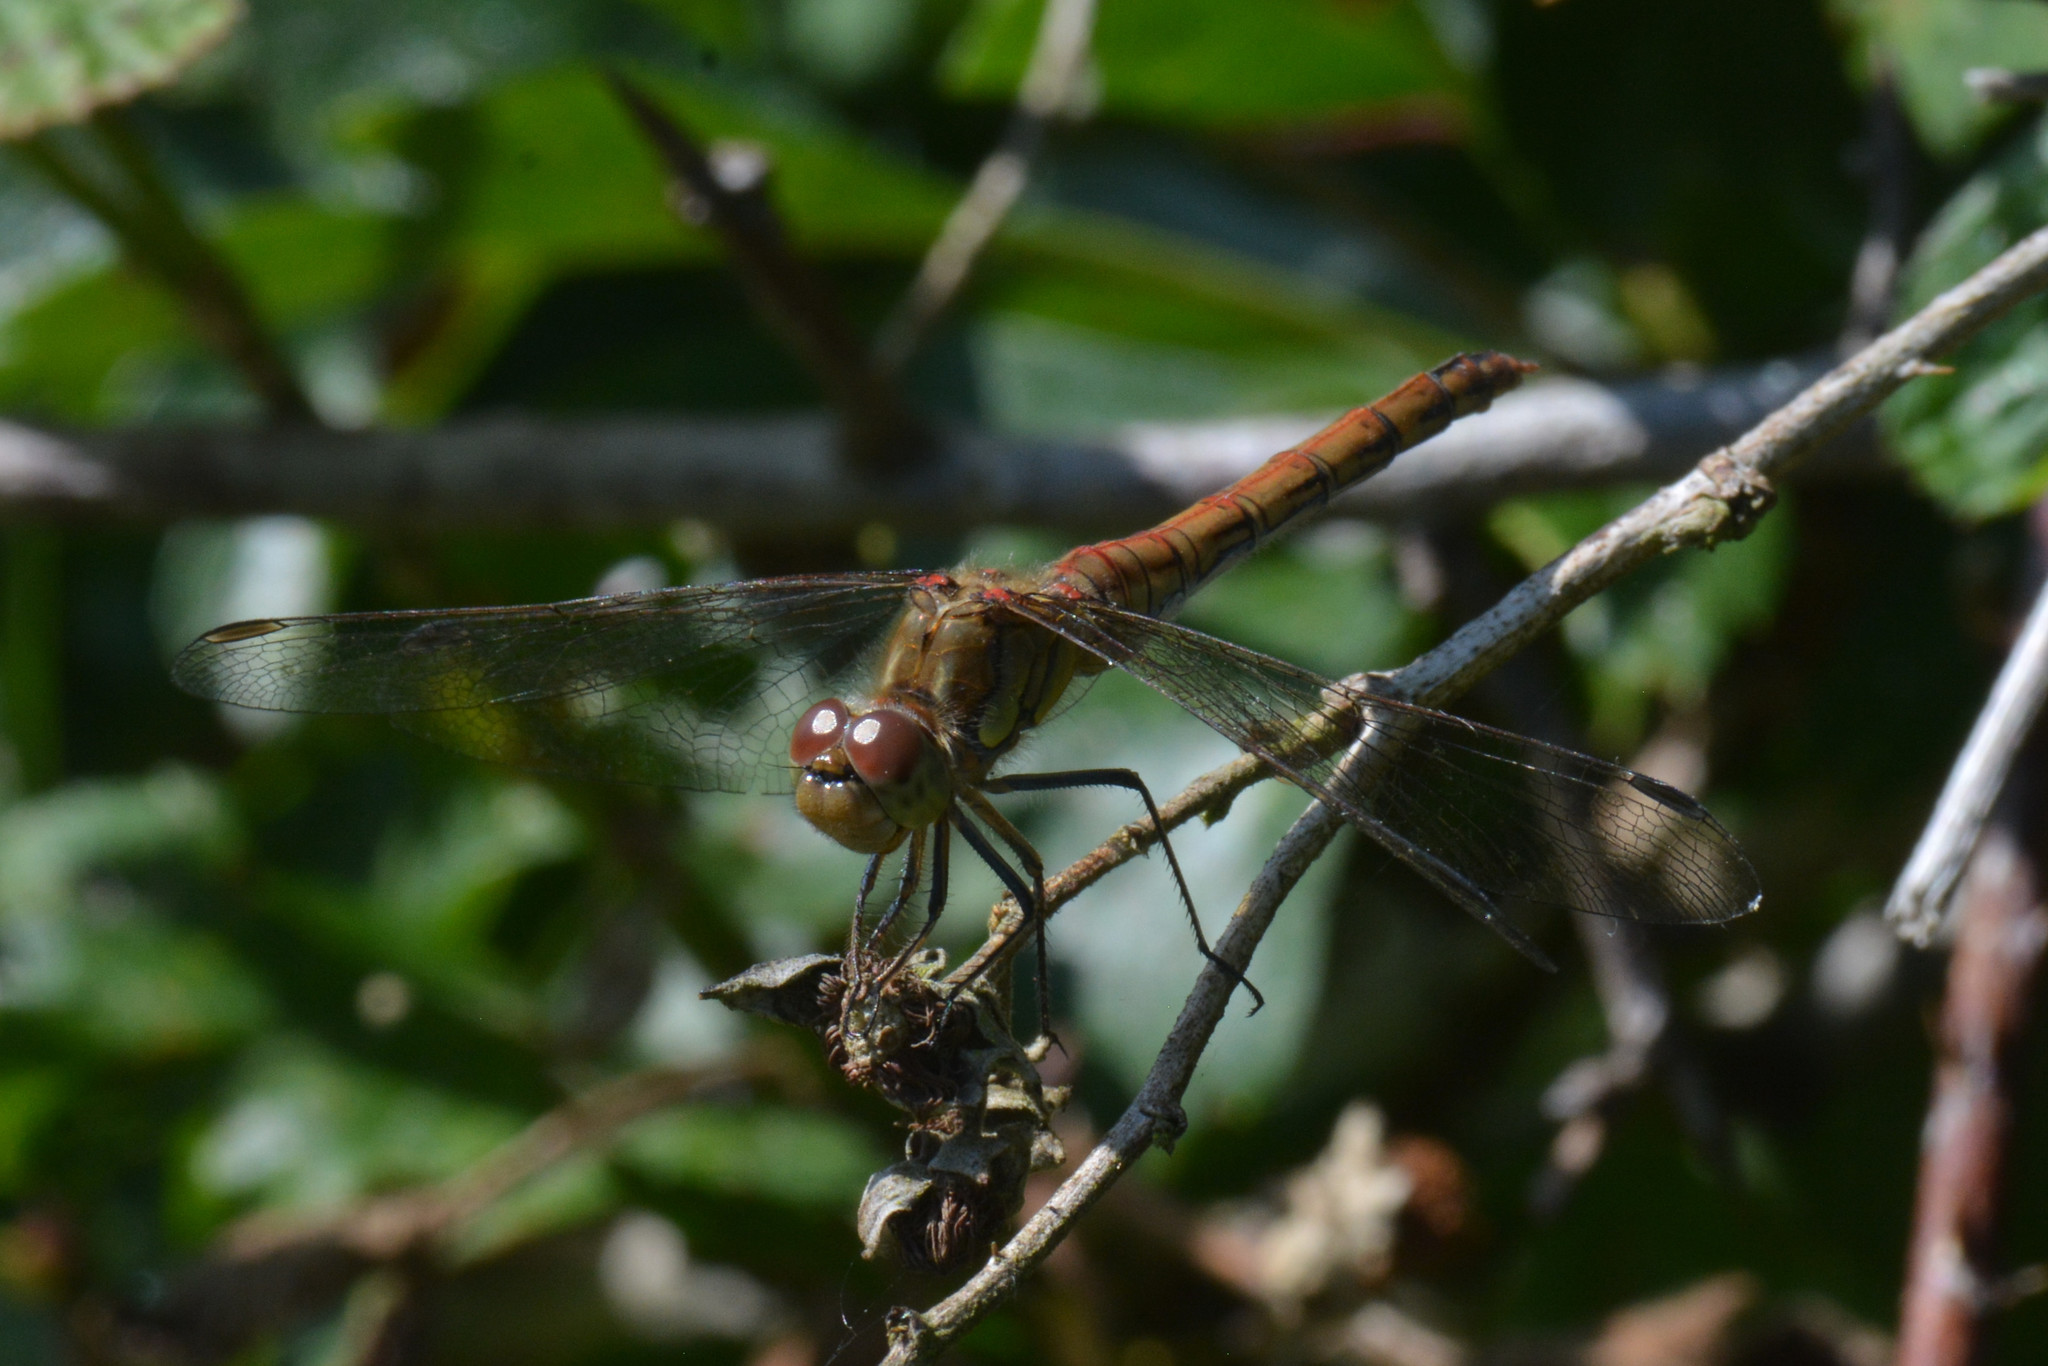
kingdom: Animalia
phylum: Arthropoda
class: Insecta
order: Odonata
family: Libellulidae
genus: Sympetrum
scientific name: Sympetrum striolatum
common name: Common darter
